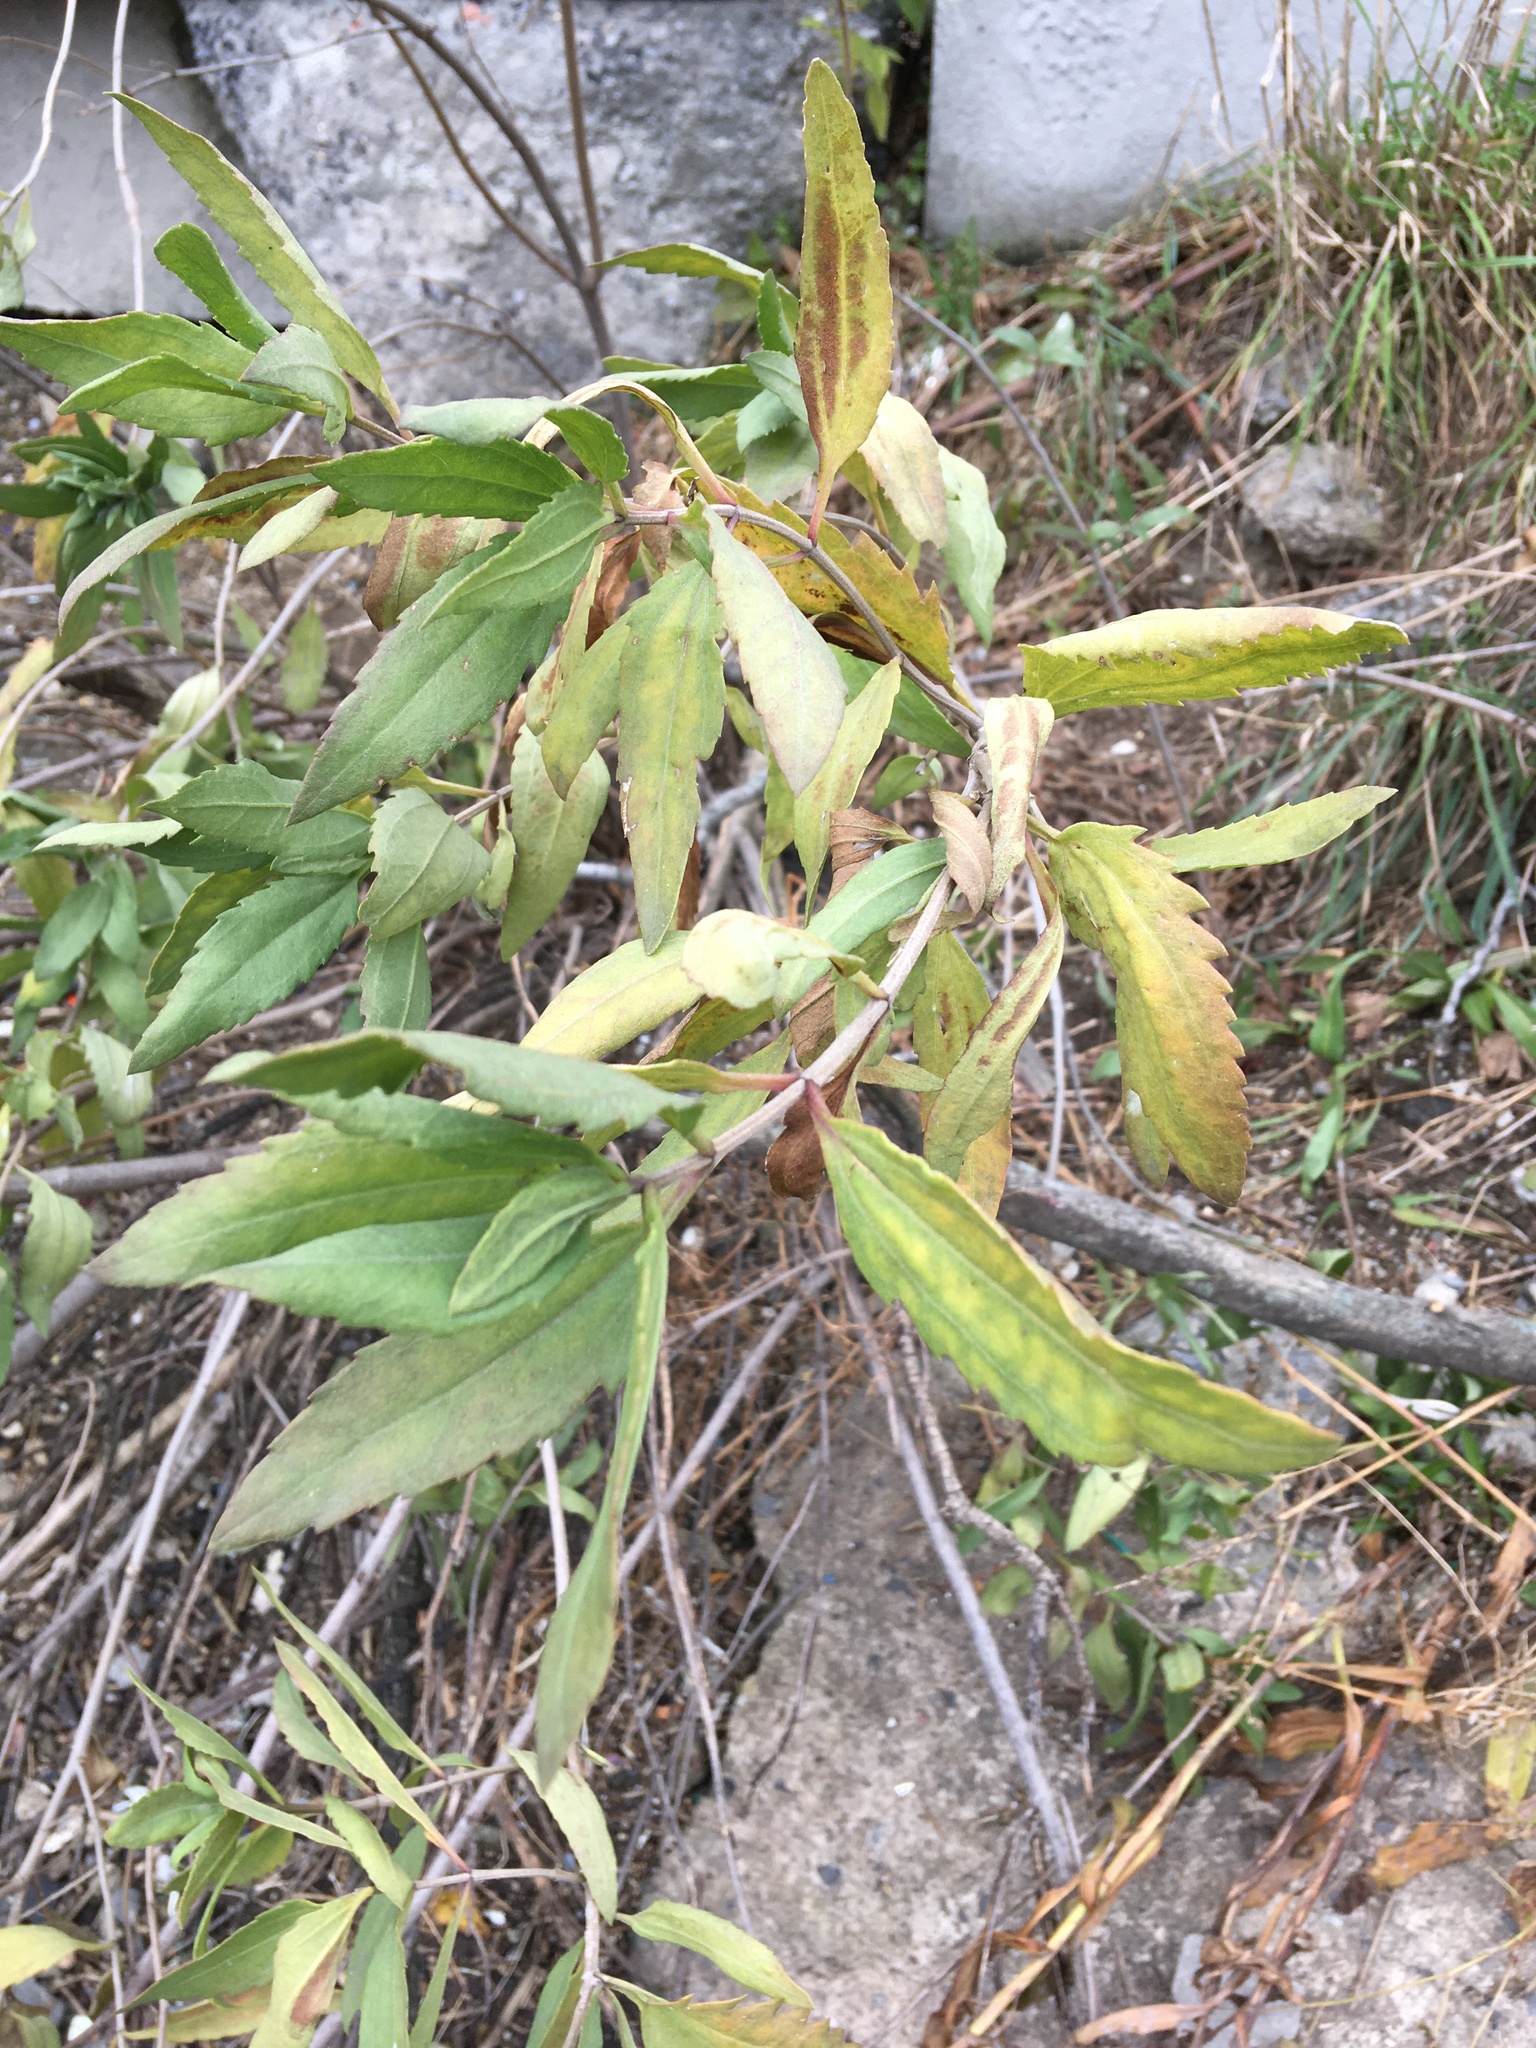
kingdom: Plantae
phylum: Tracheophyta
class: Magnoliopsida
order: Asterales
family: Asteraceae
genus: Iva
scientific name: Iva frutescens
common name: Big-leaved marsh-elder
